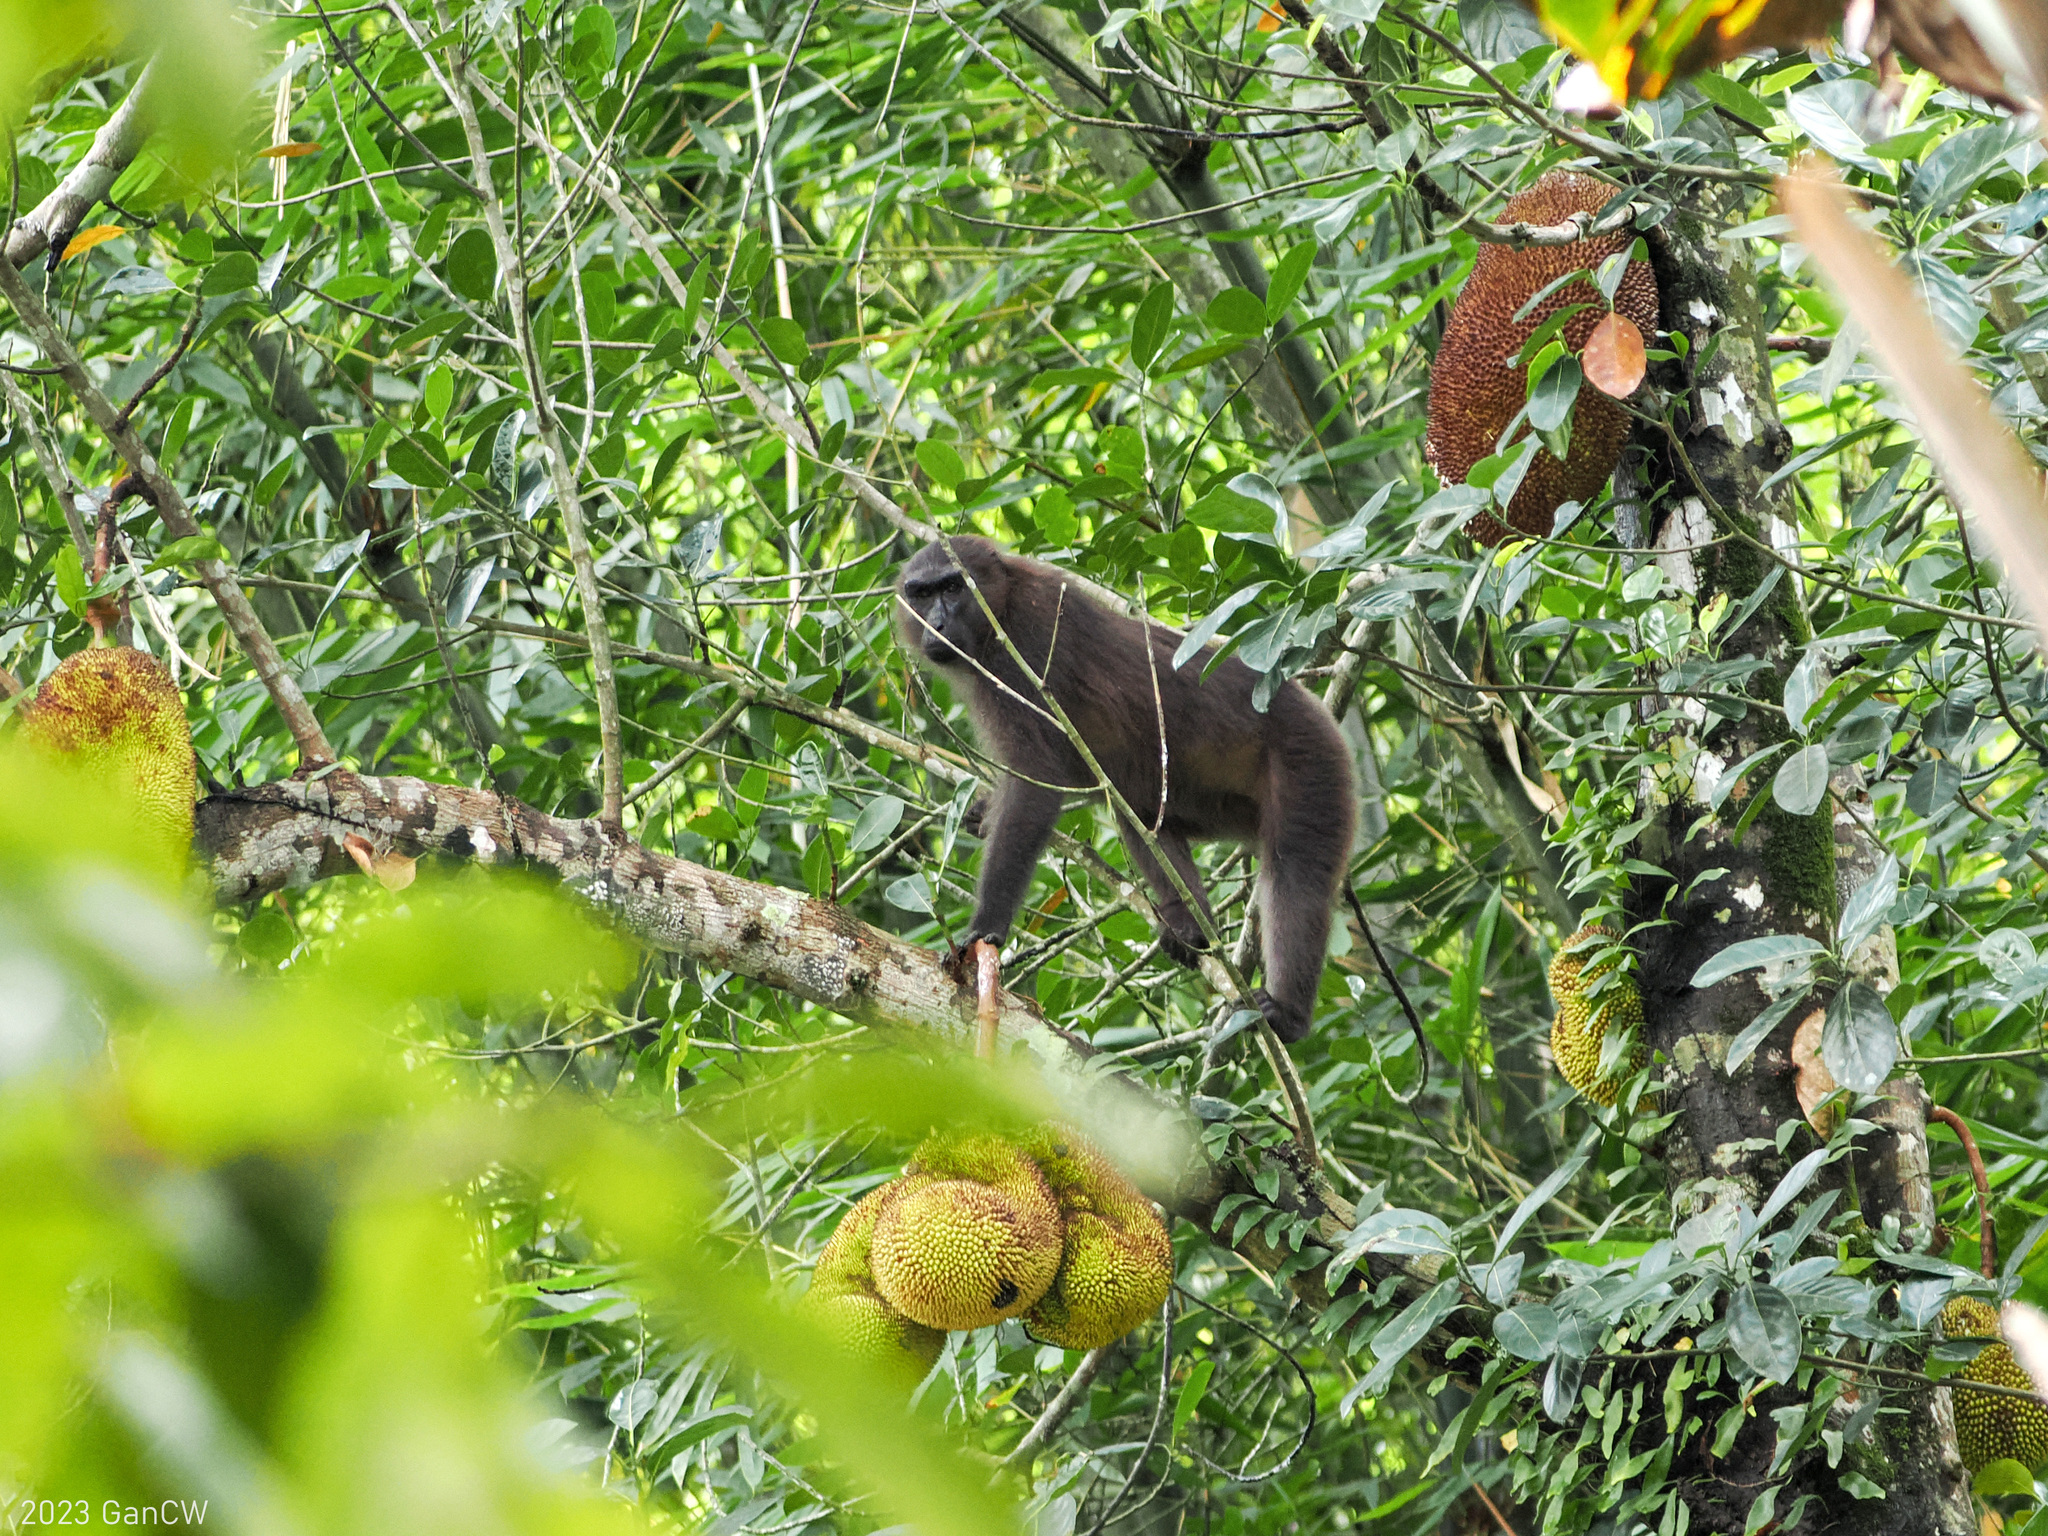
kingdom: Animalia
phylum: Chordata
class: Mammalia
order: Primates
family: Cercopithecidae
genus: Macaca
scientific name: Macaca maura
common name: Moor macaque
